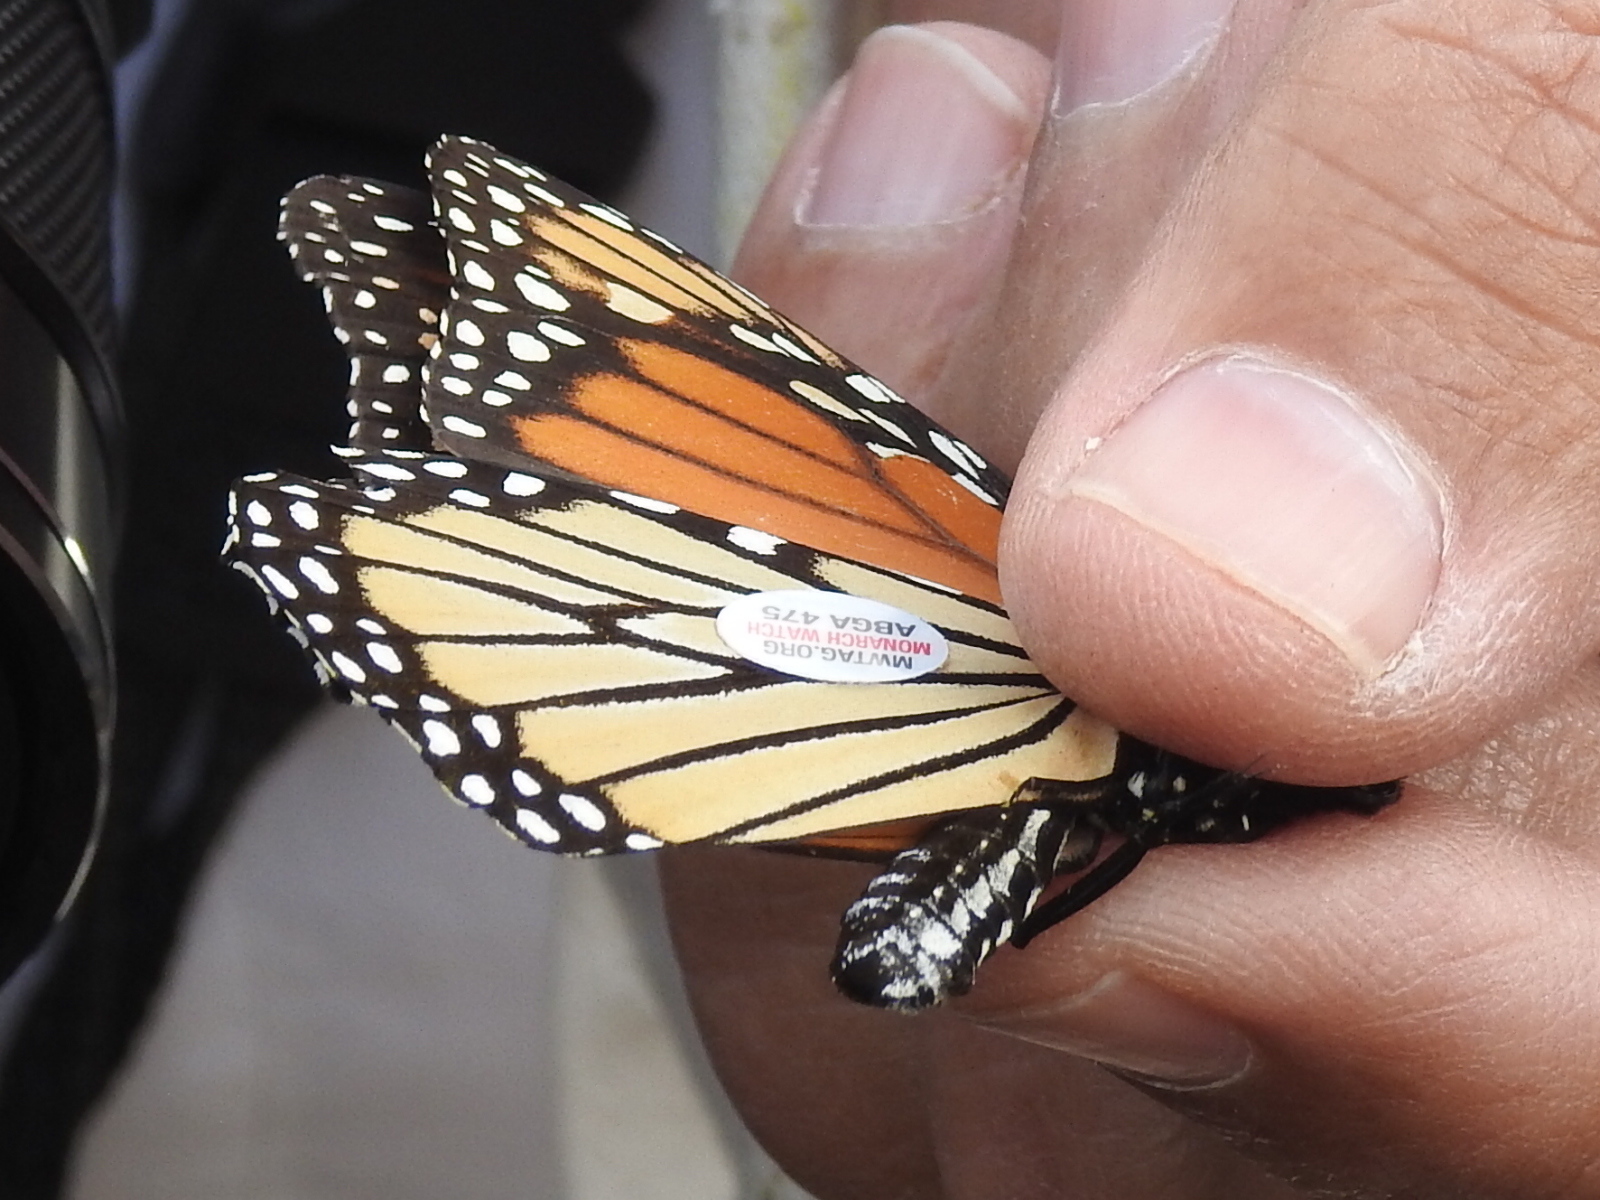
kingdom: Animalia
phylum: Arthropoda
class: Insecta
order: Lepidoptera
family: Nymphalidae
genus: Danaus
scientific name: Danaus plexippus
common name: Monarch
